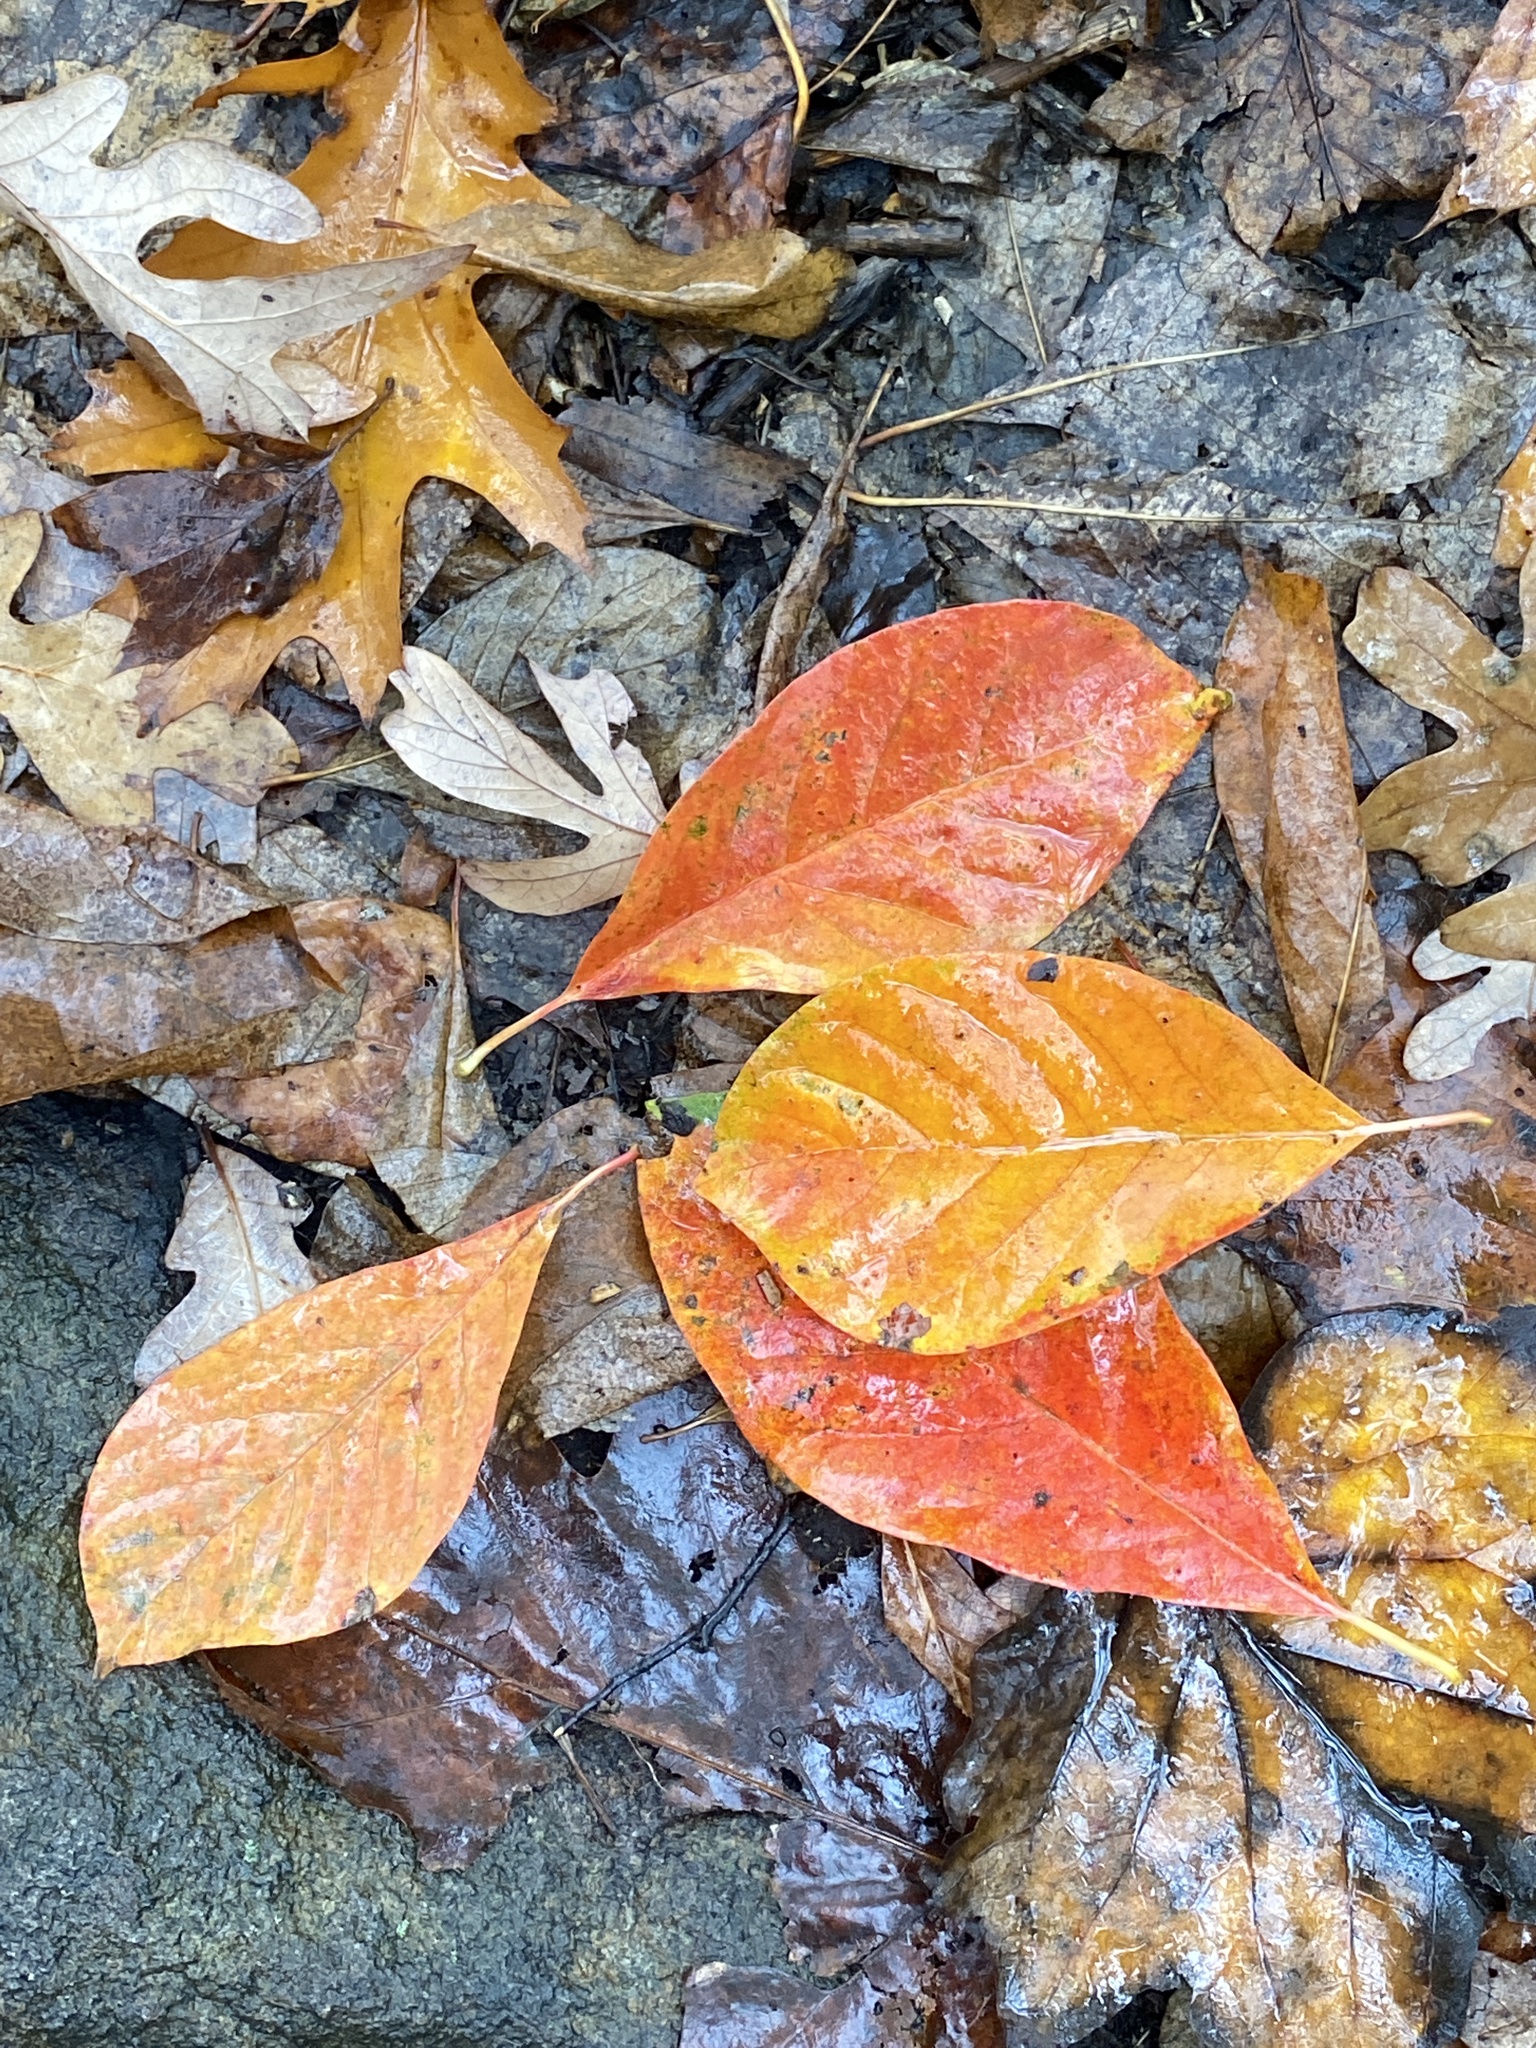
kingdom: Plantae
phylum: Tracheophyta
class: Magnoliopsida
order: Cornales
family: Nyssaceae
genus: Nyssa
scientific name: Nyssa sylvatica
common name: Black tupelo
